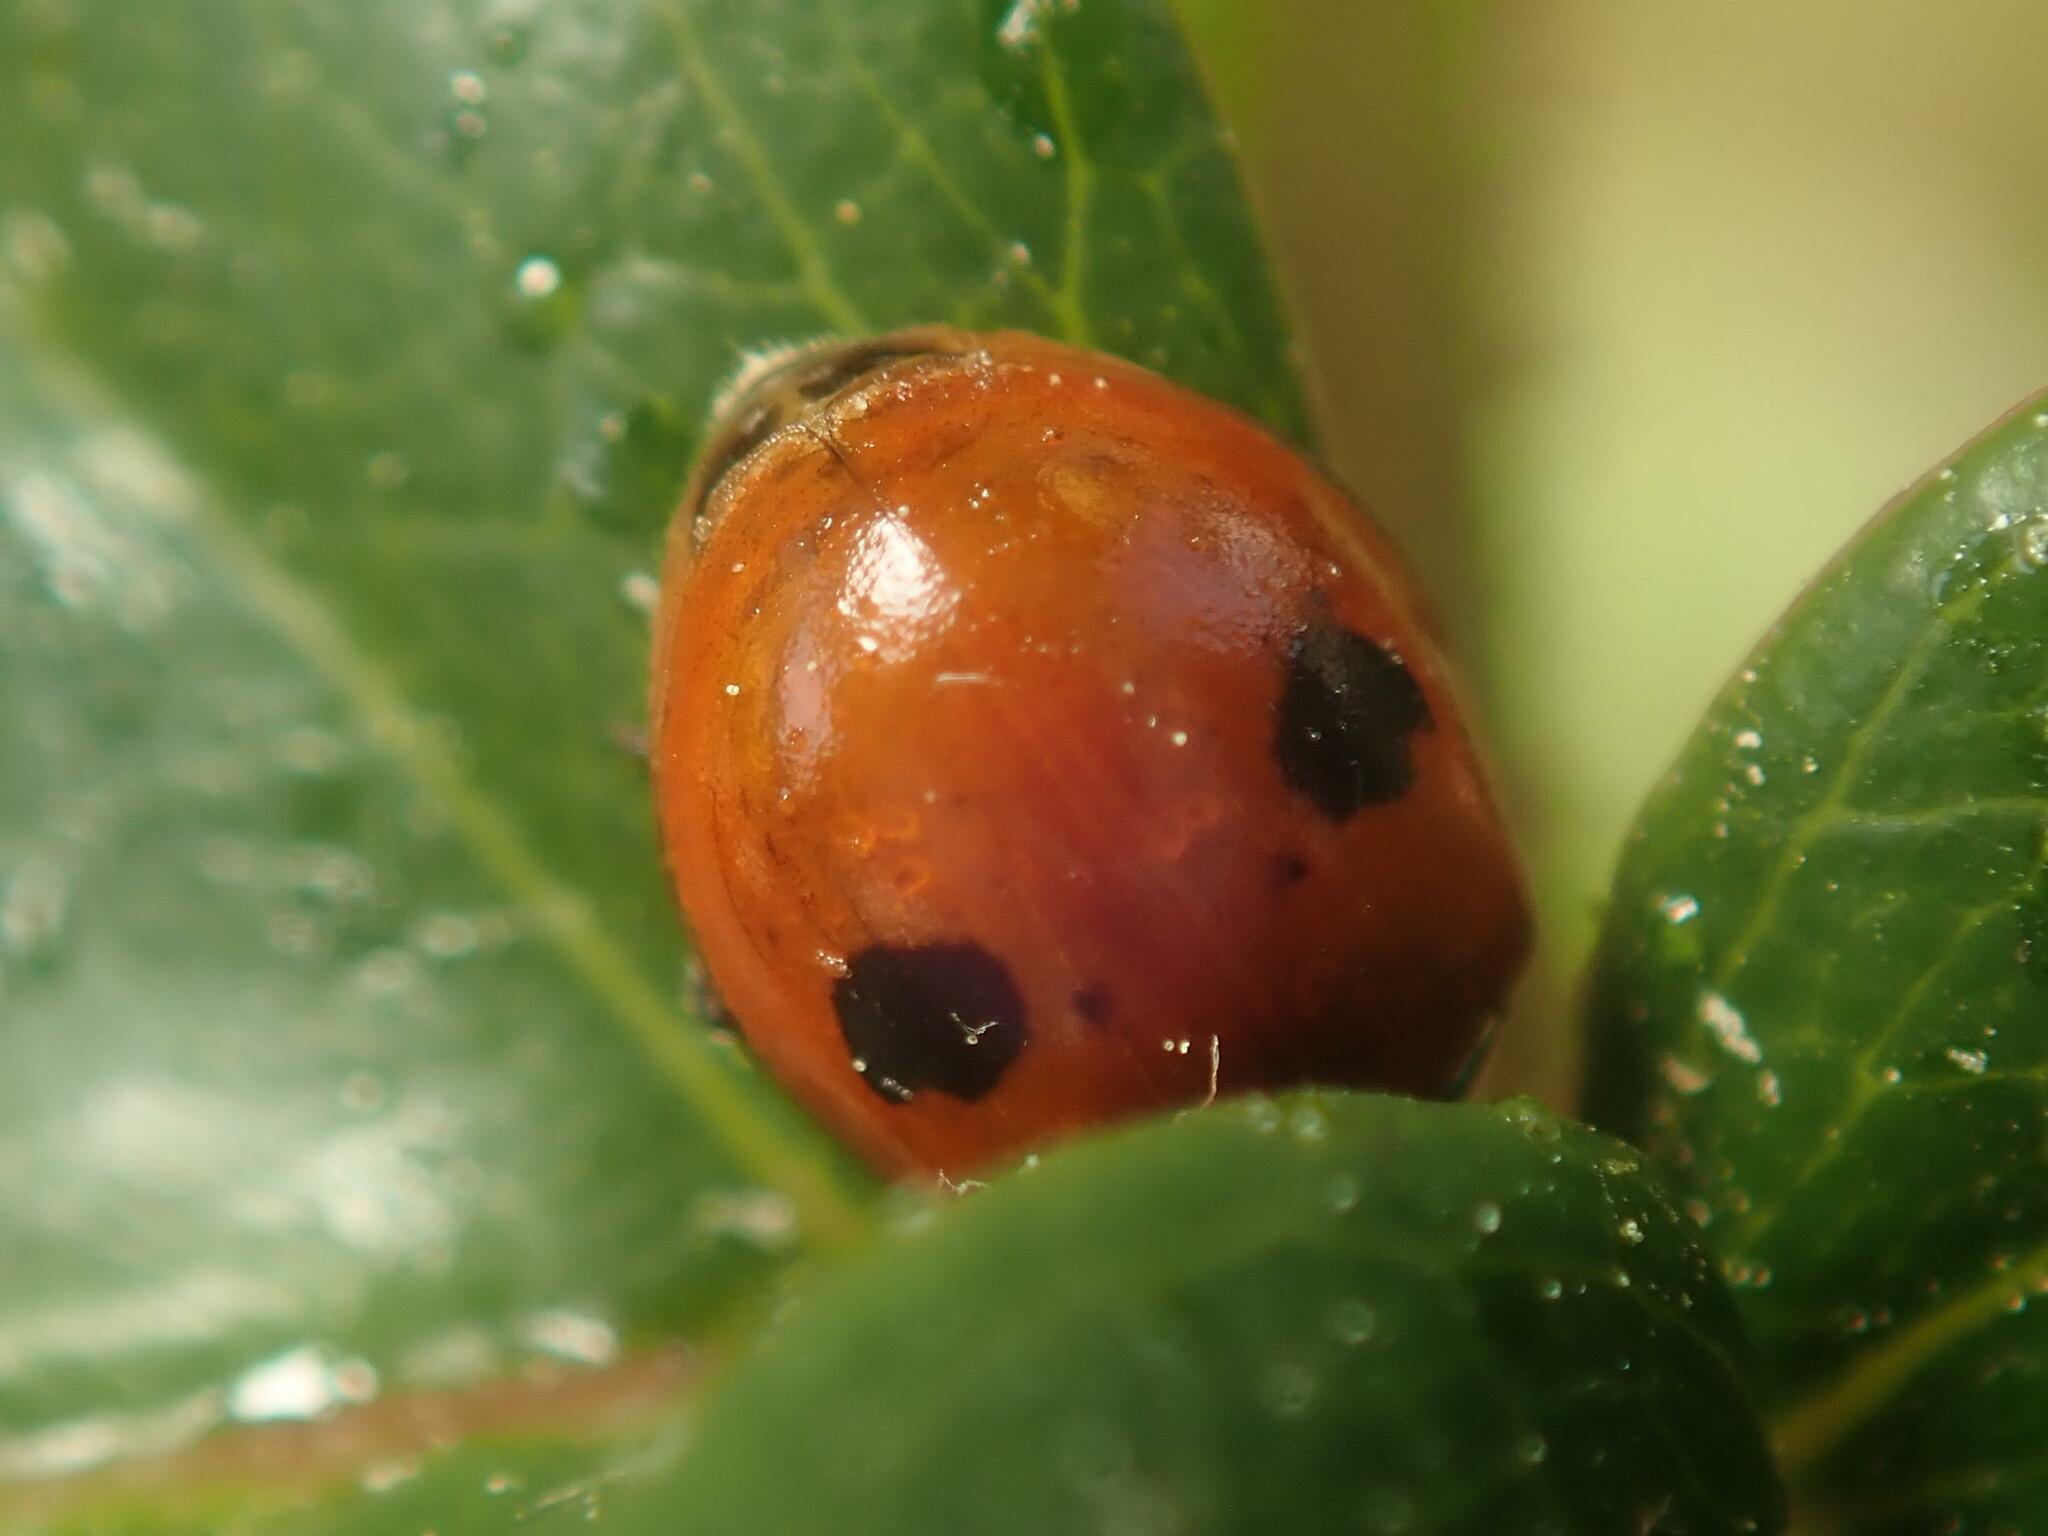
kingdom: Animalia
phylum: Arthropoda
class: Insecta
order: Coleoptera
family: Coccinellidae
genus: Adalia
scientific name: Adalia bipunctata
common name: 2-spot ladybird
